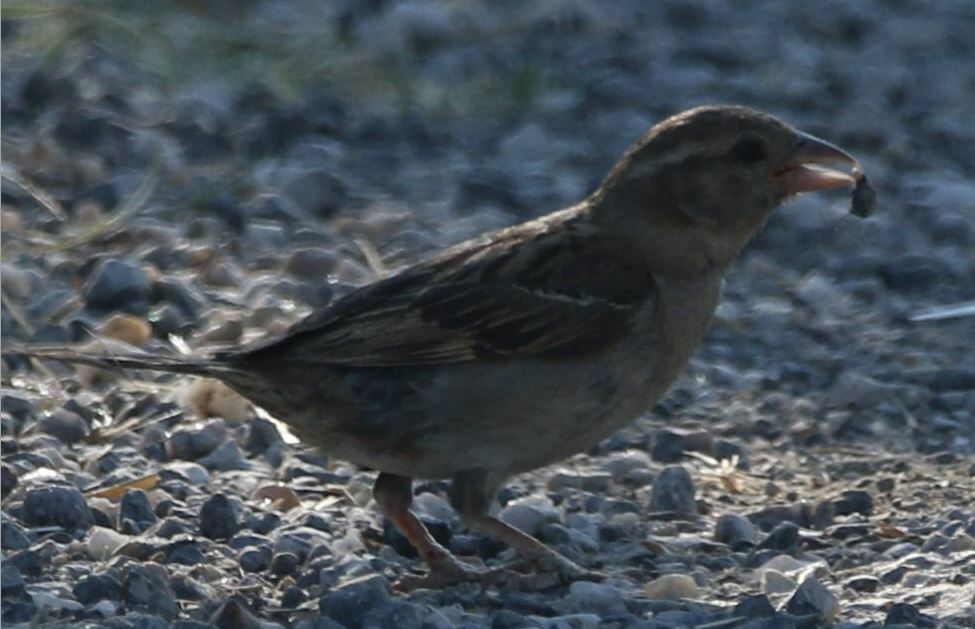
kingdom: Animalia
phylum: Chordata
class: Aves
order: Passeriformes
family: Passeridae
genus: Passer
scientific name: Passer domesticus
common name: House sparrow
